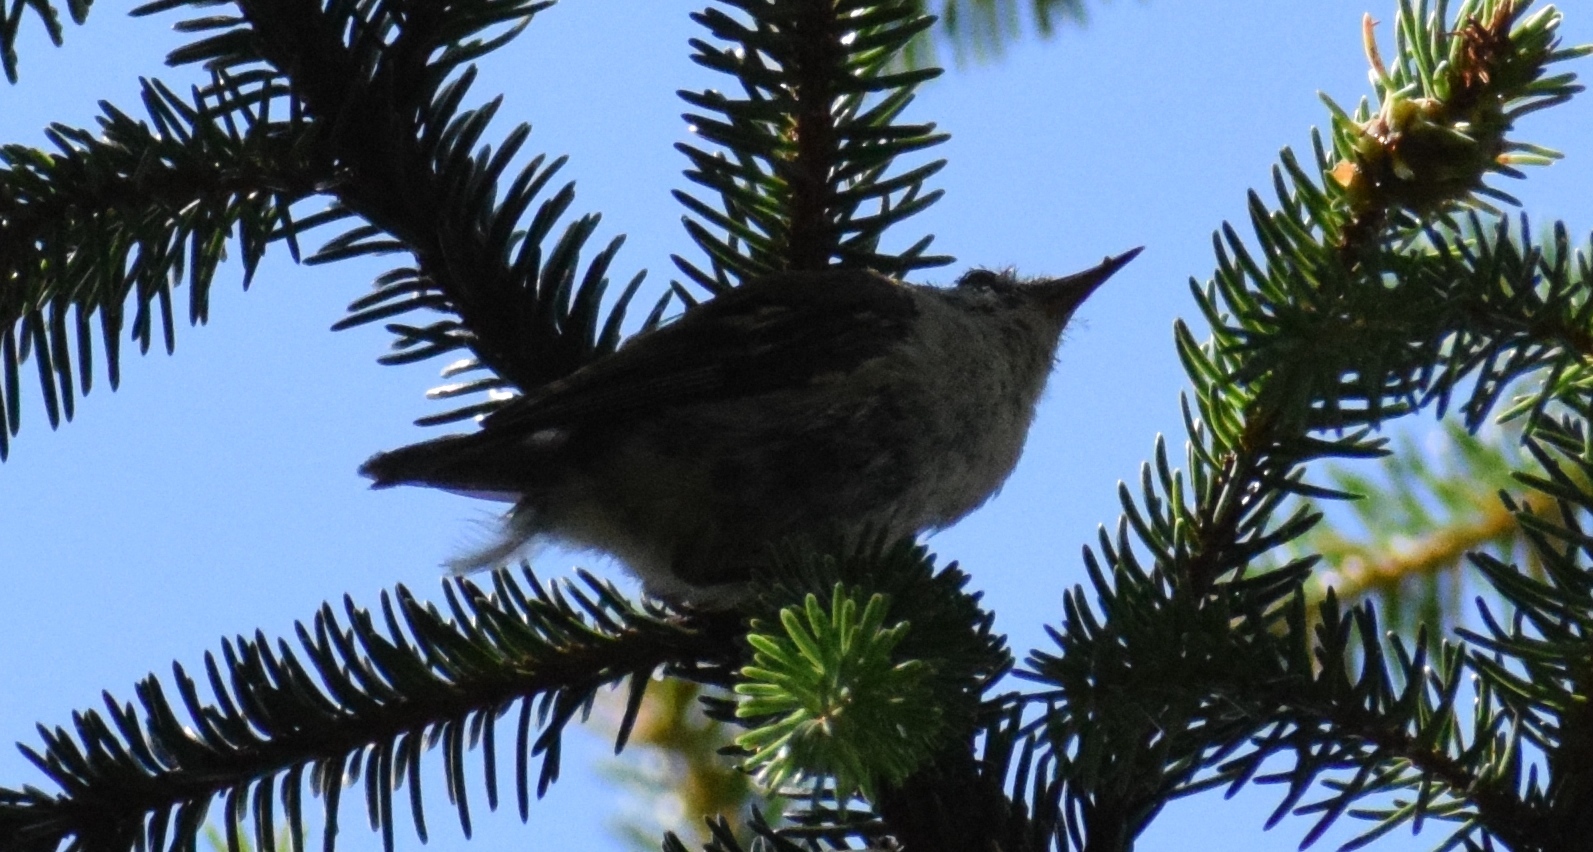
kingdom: Animalia
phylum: Chordata
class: Aves
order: Passeriformes
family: Regulidae
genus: Regulus
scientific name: Regulus regulus
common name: Goldcrest
